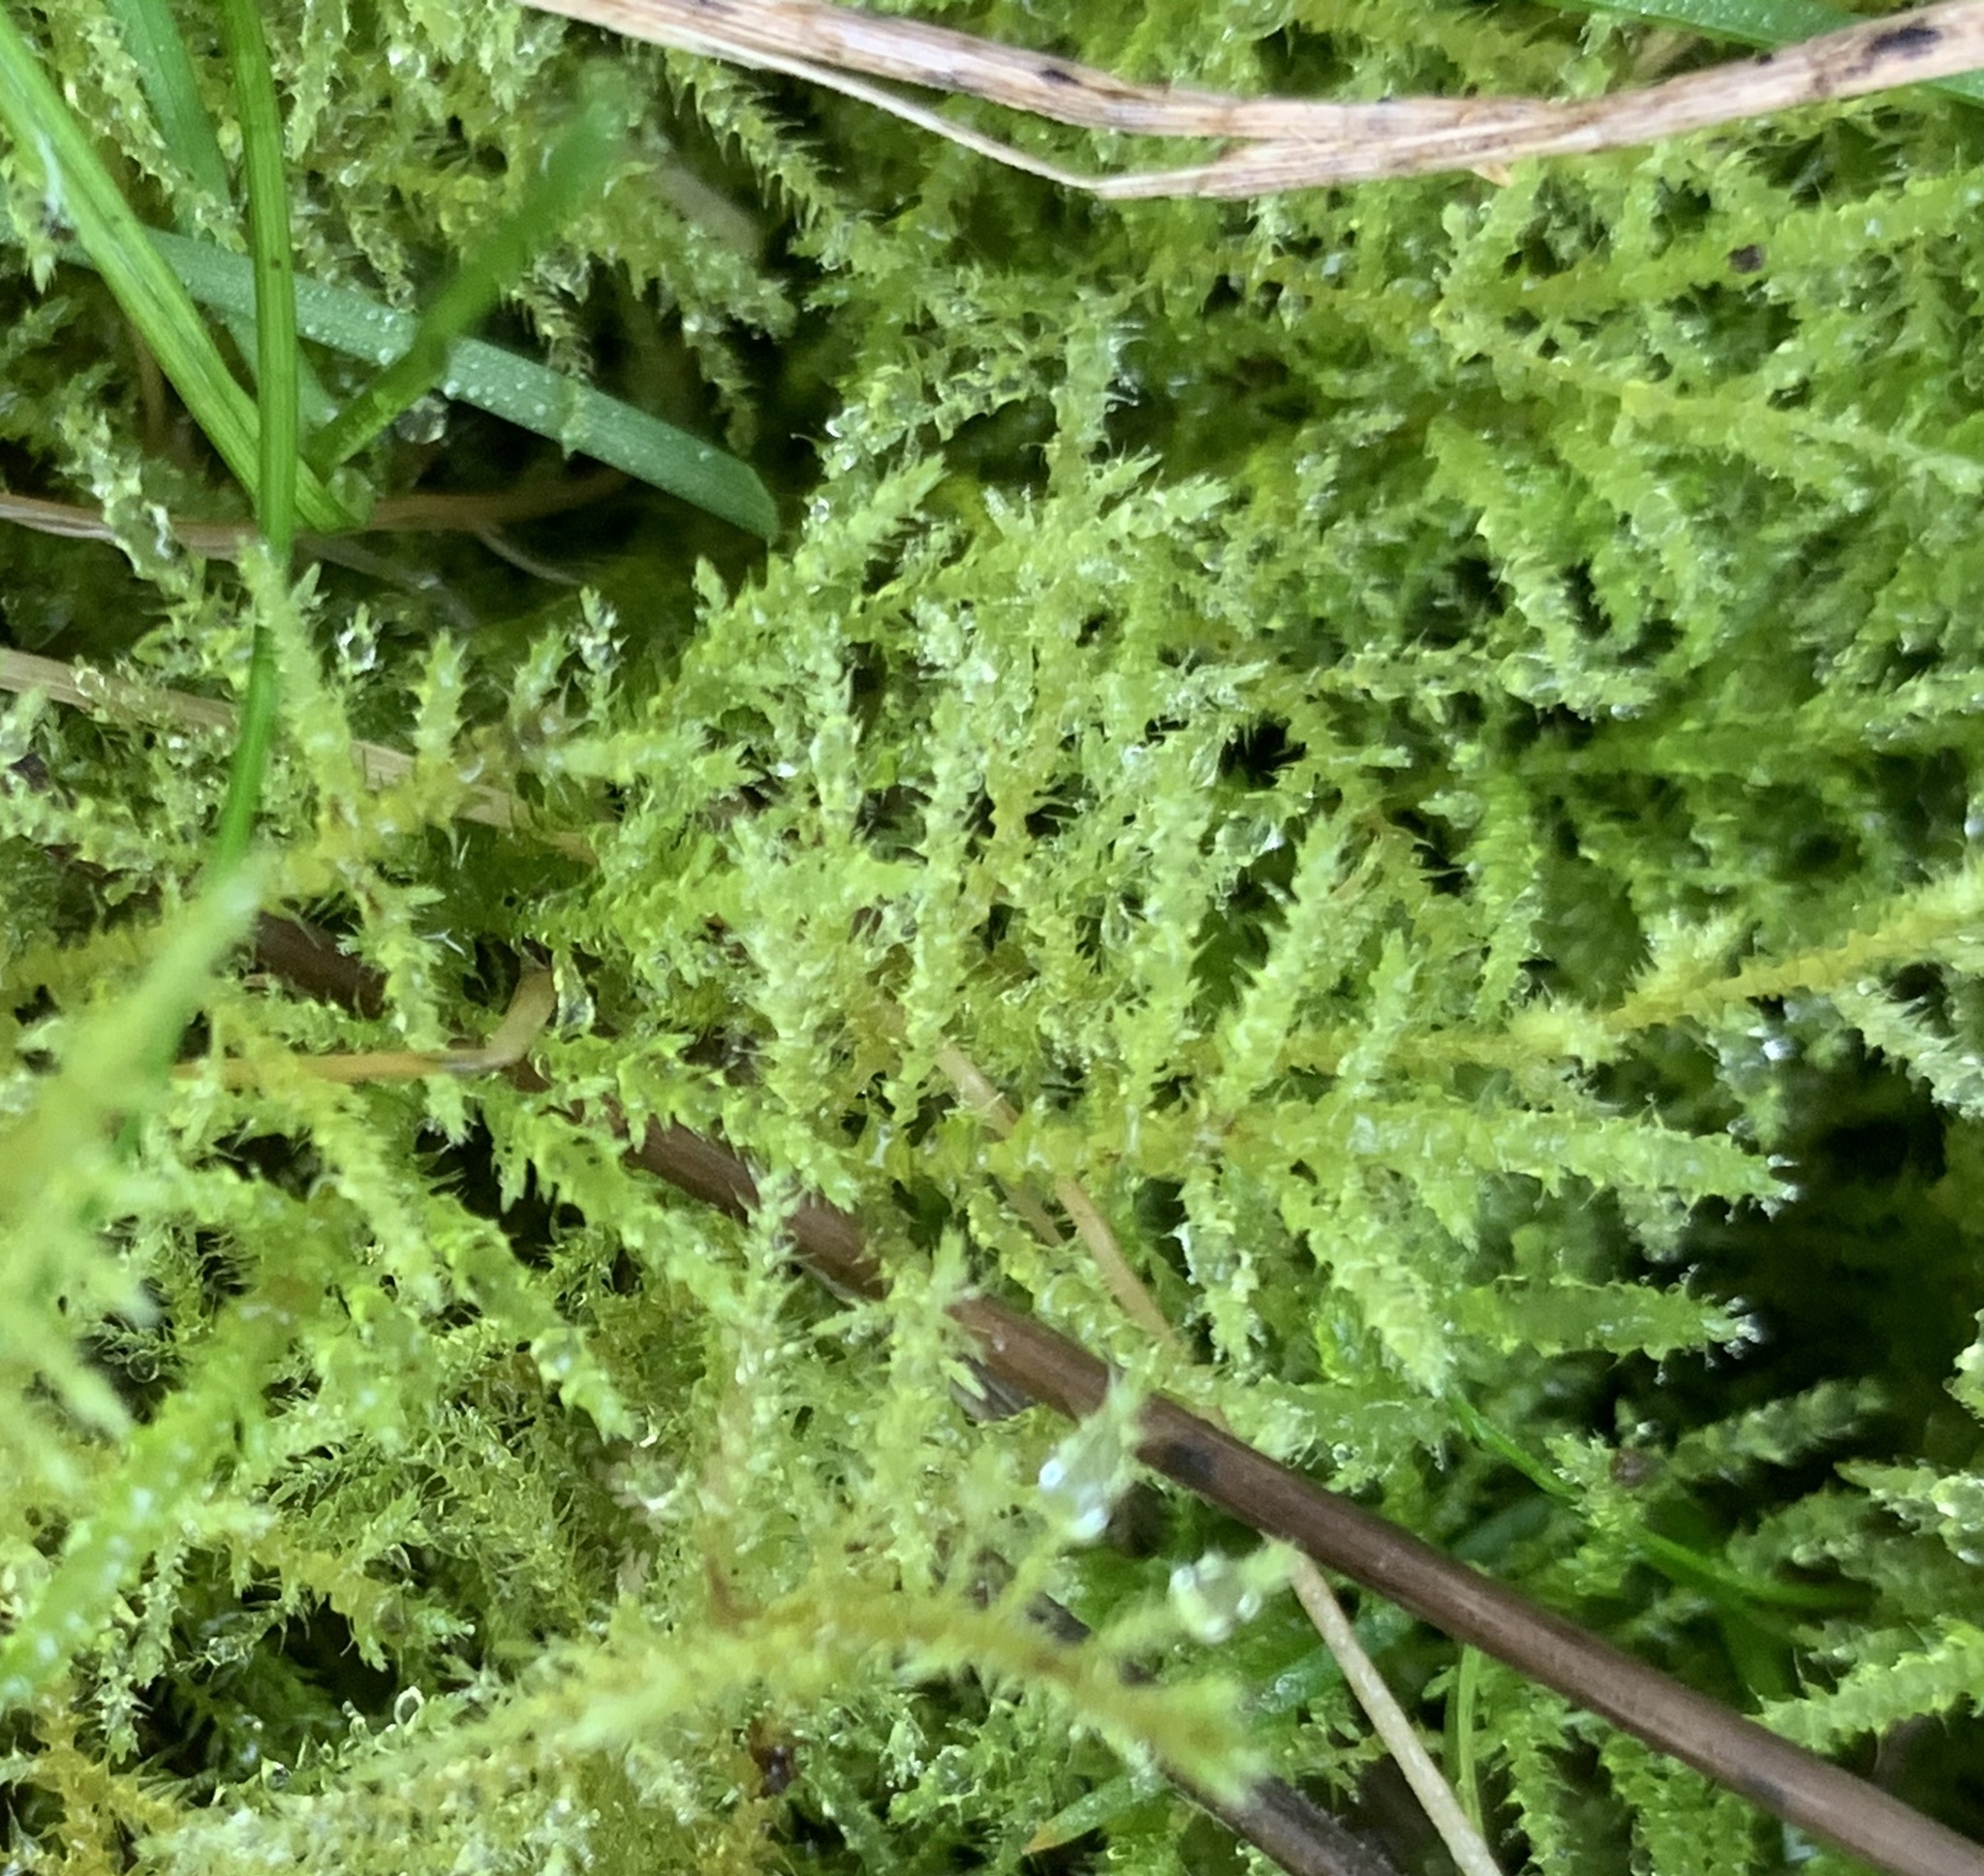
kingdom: Plantae
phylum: Bryophyta
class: Bryopsida
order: Hypnales
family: Brachytheciaceae
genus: Kindbergia
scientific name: Kindbergia praelonga
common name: Slender beaked moss
